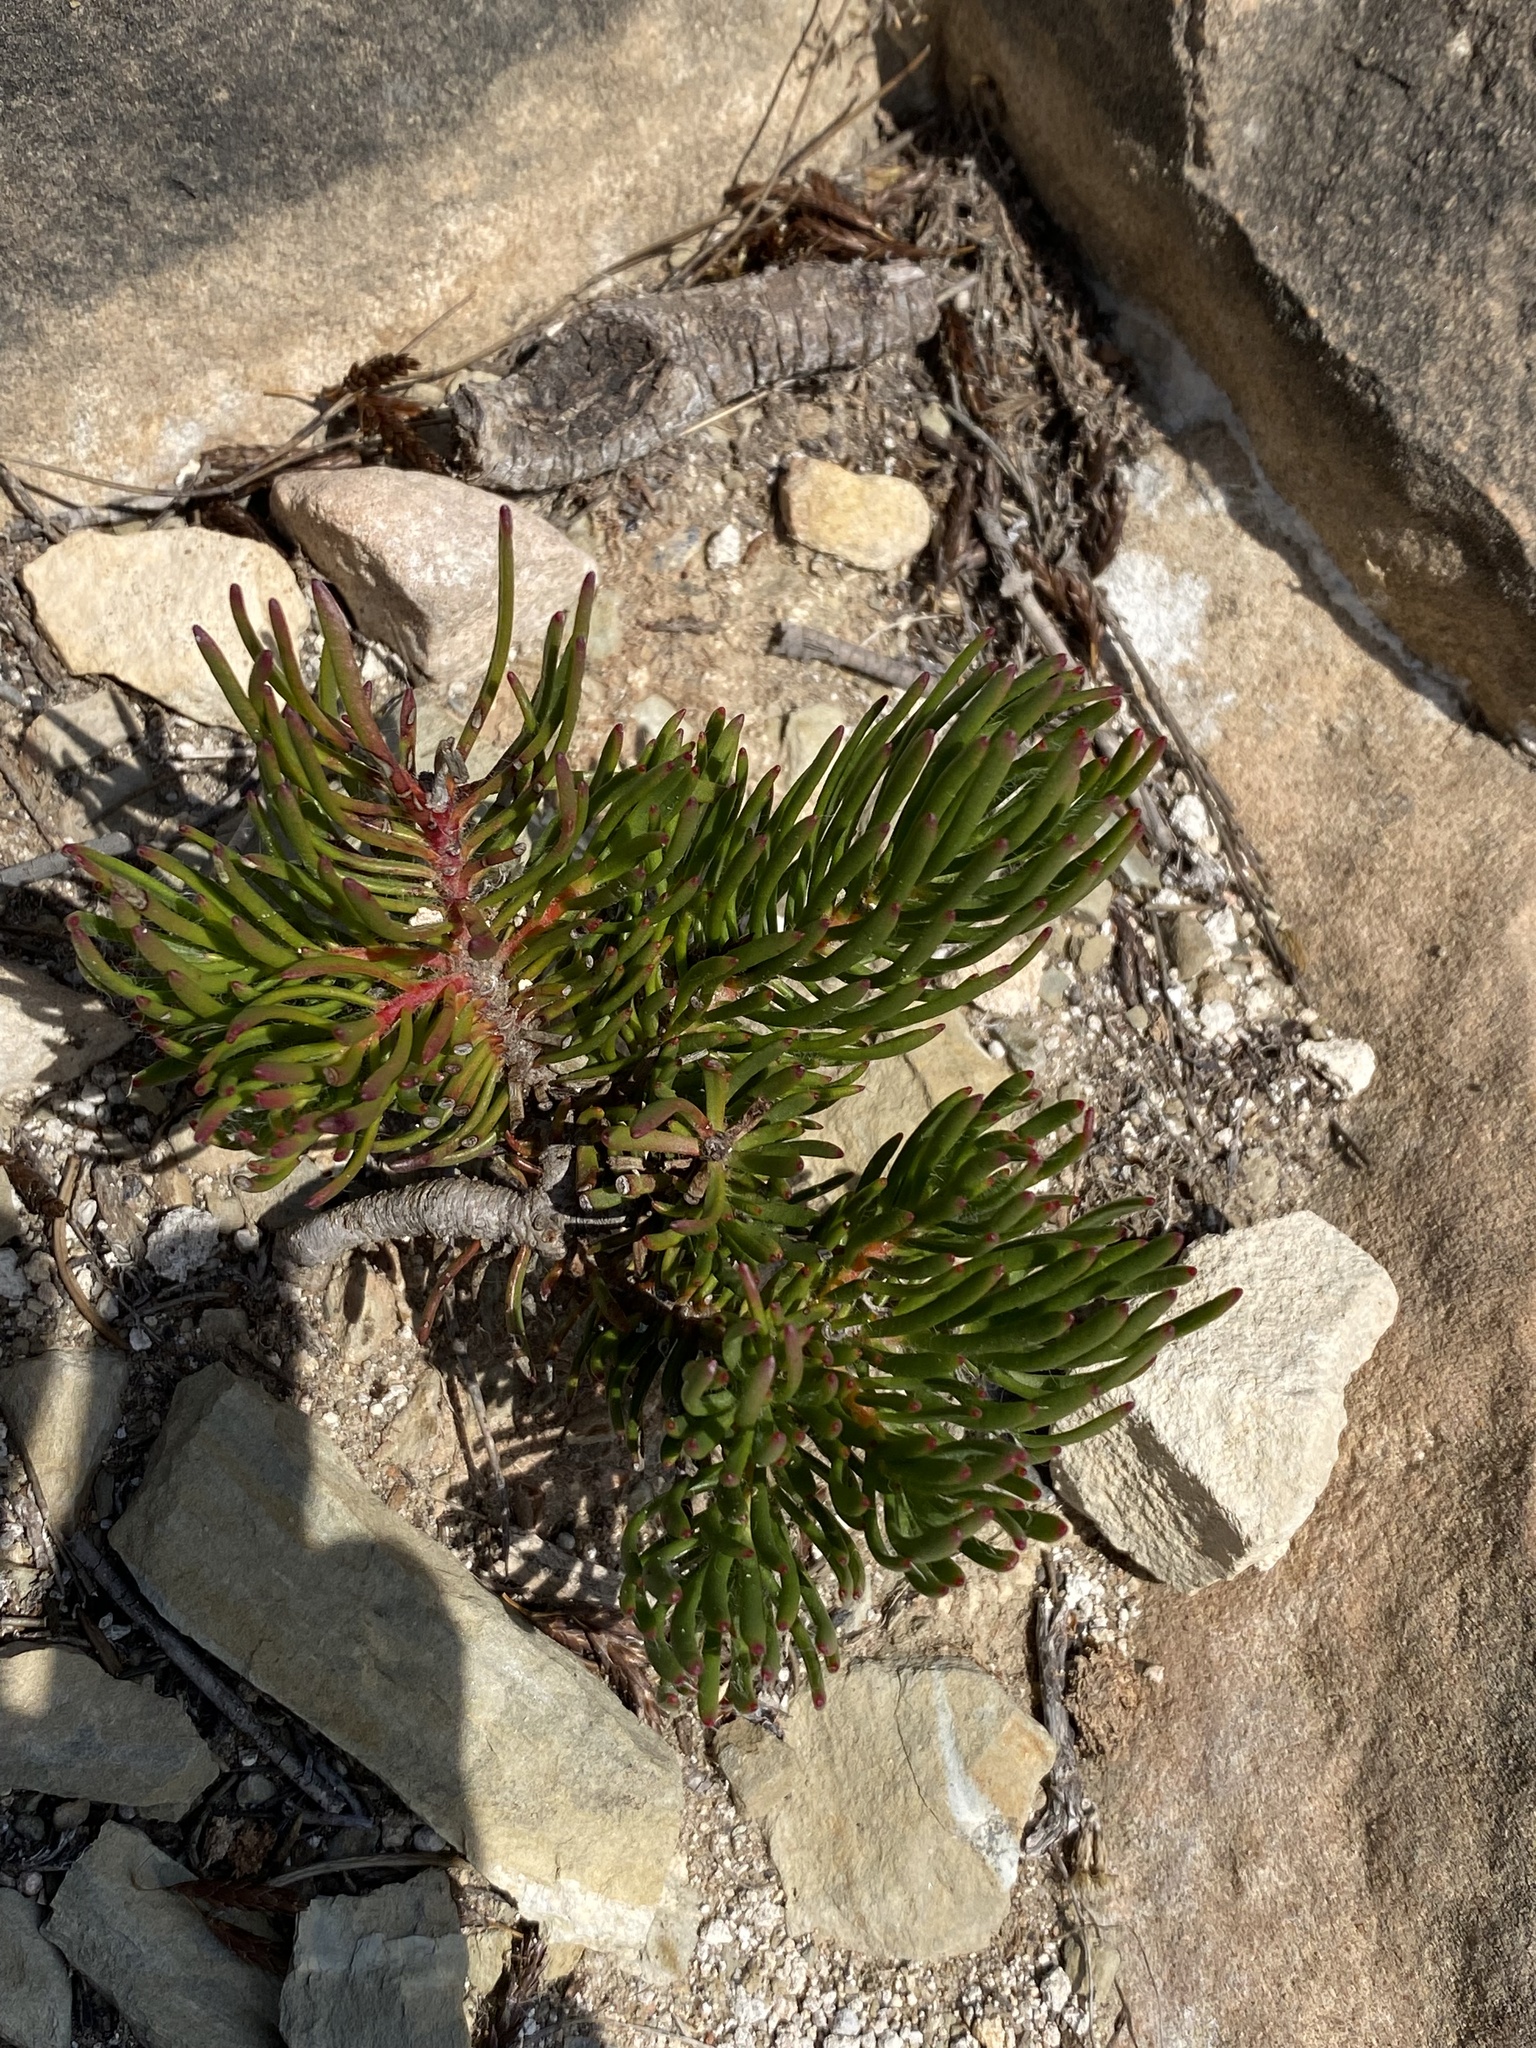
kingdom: Plantae
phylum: Tracheophyta
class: Magnoliopsida
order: Proteales
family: Proteaceae
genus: Leucadendron
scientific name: Leucadendron muirii
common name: Silver-ball conebush
